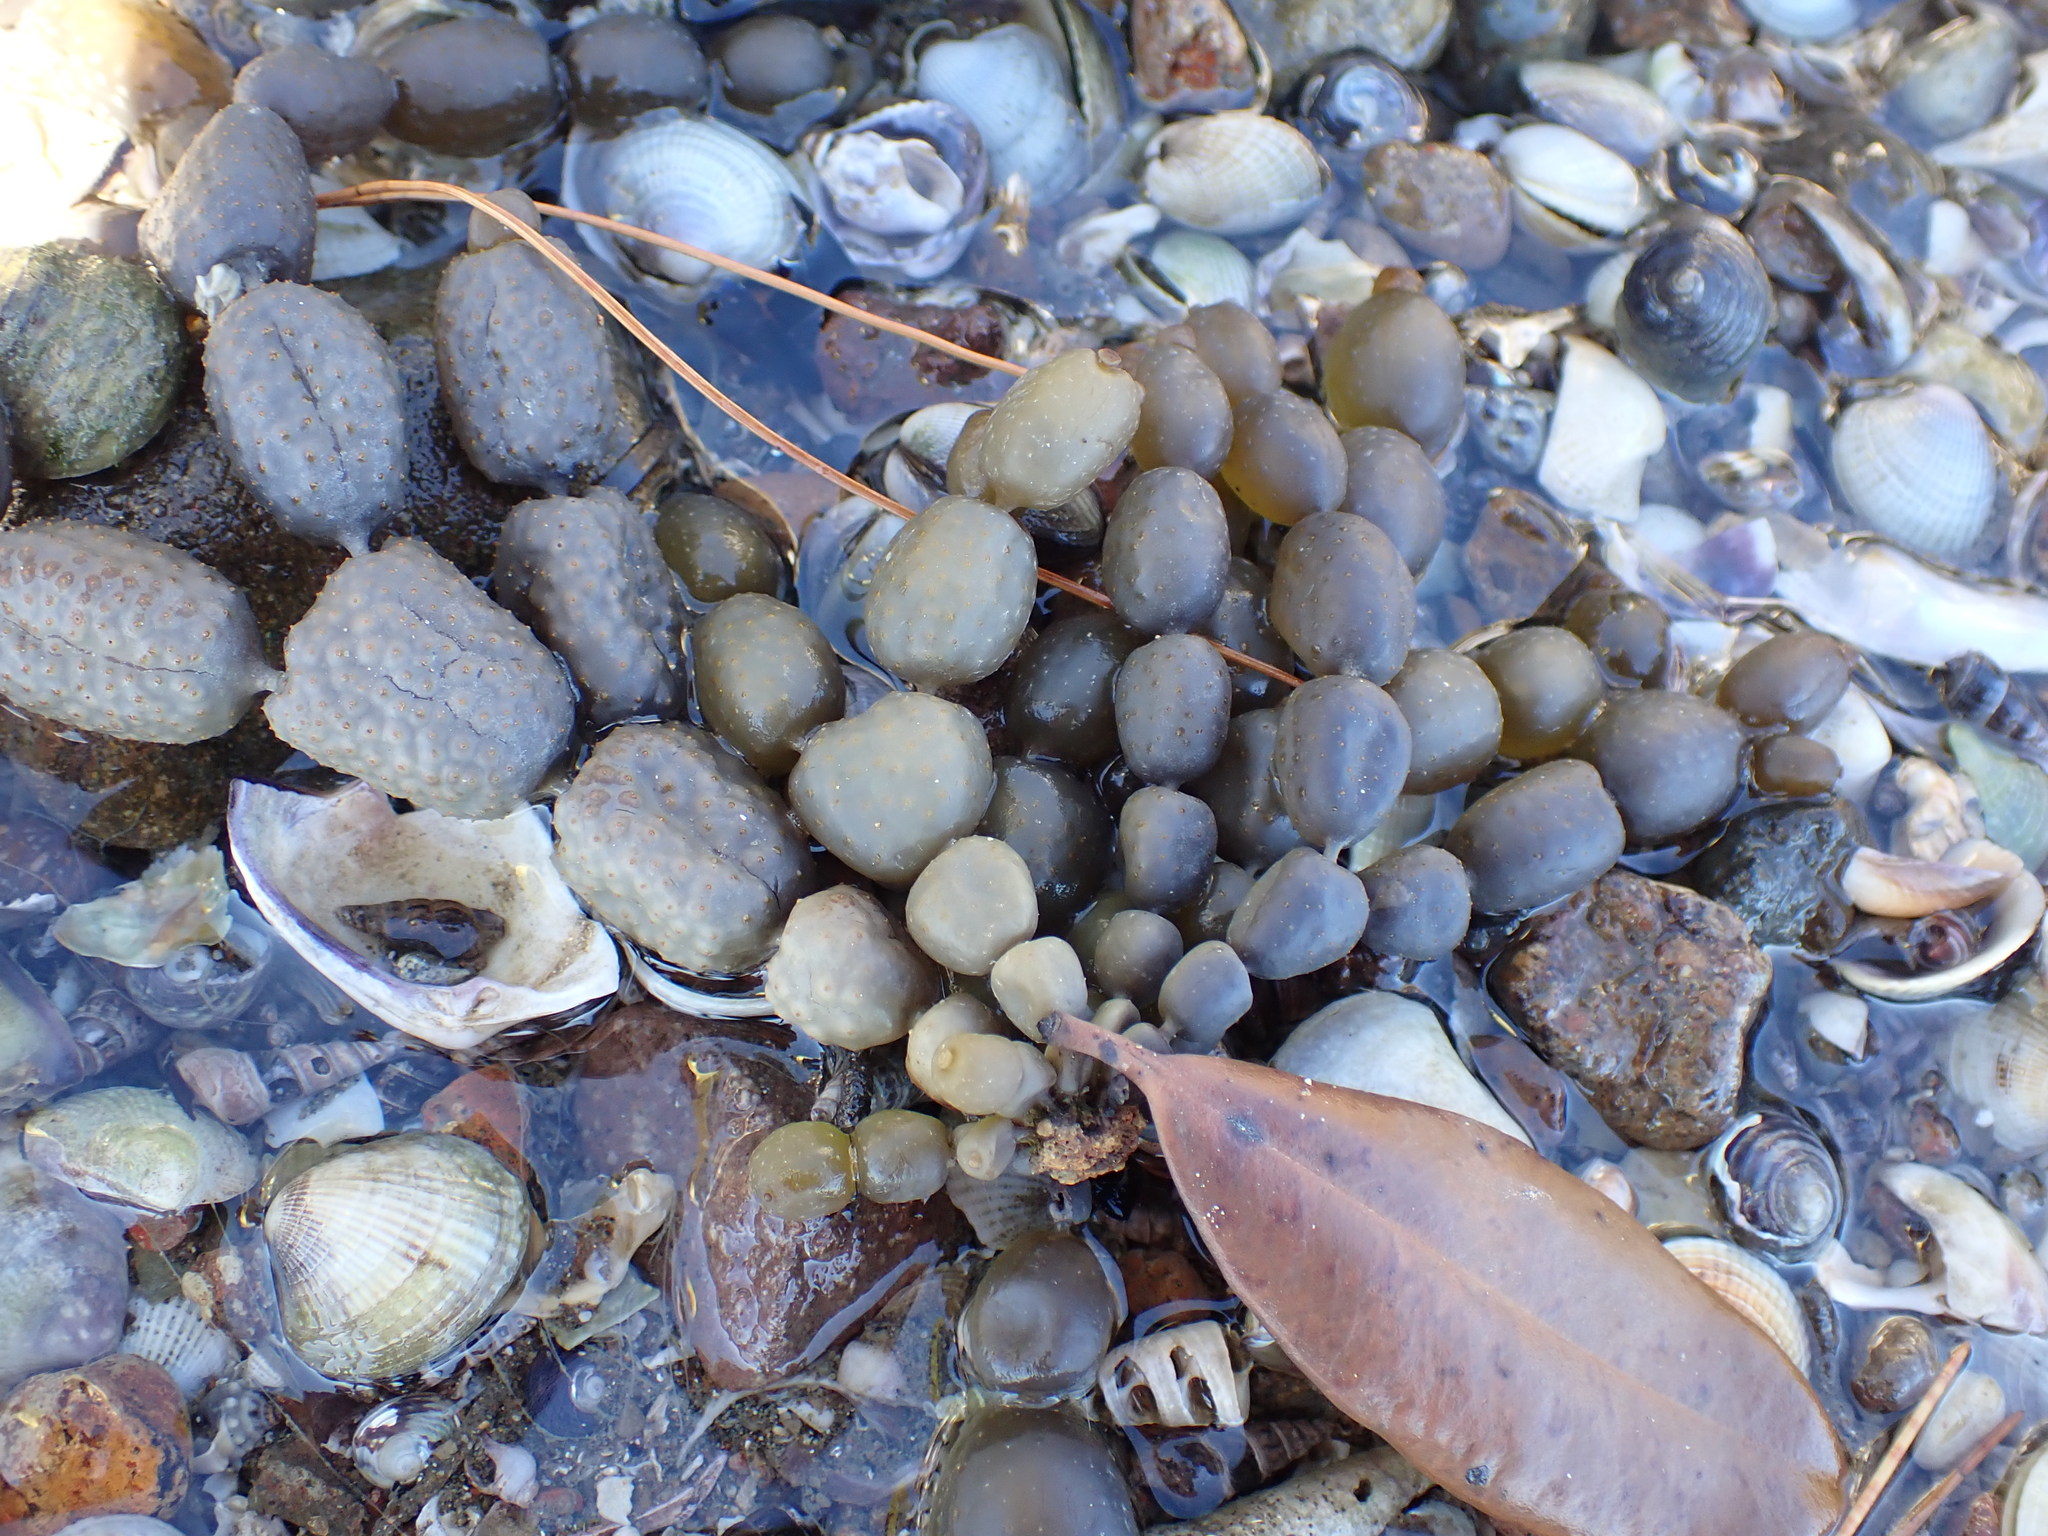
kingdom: Chromista
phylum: Ochrophyta
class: Phaeophyceae
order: Fucales
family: Hormosiraceae
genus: Hormosira
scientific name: Hormosira banksii
